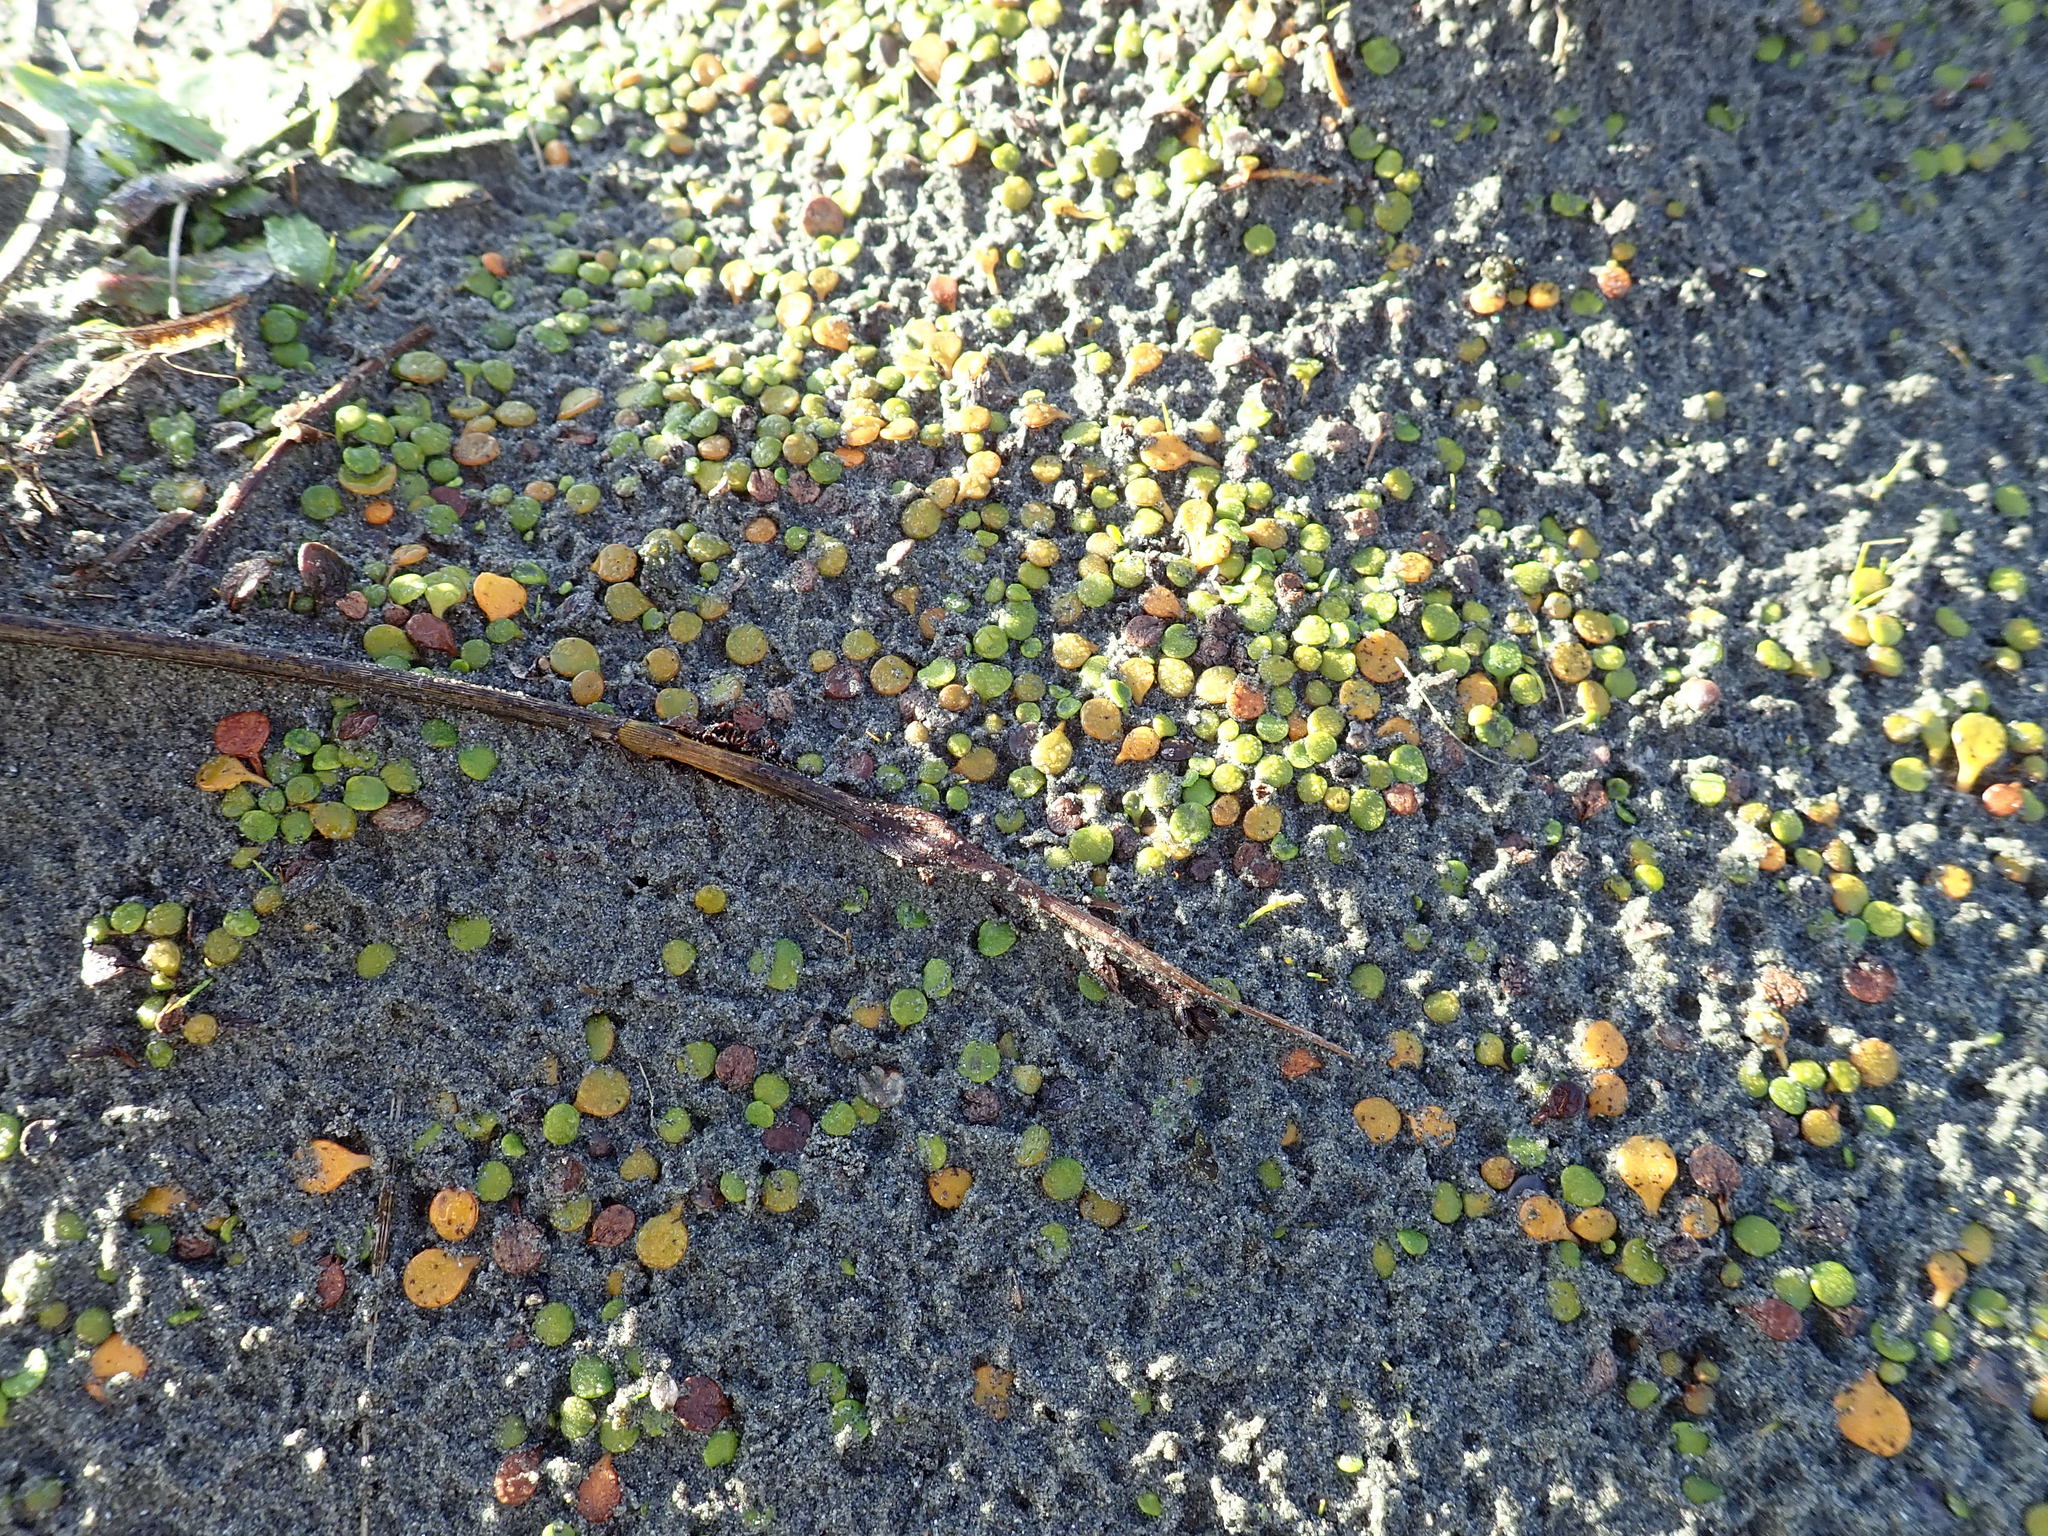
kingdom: Plantae
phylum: Tracheophyta
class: Magnoliopsida
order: Asterales
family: Goodeniaceae
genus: Goodenia
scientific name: Goodenia heenanii
